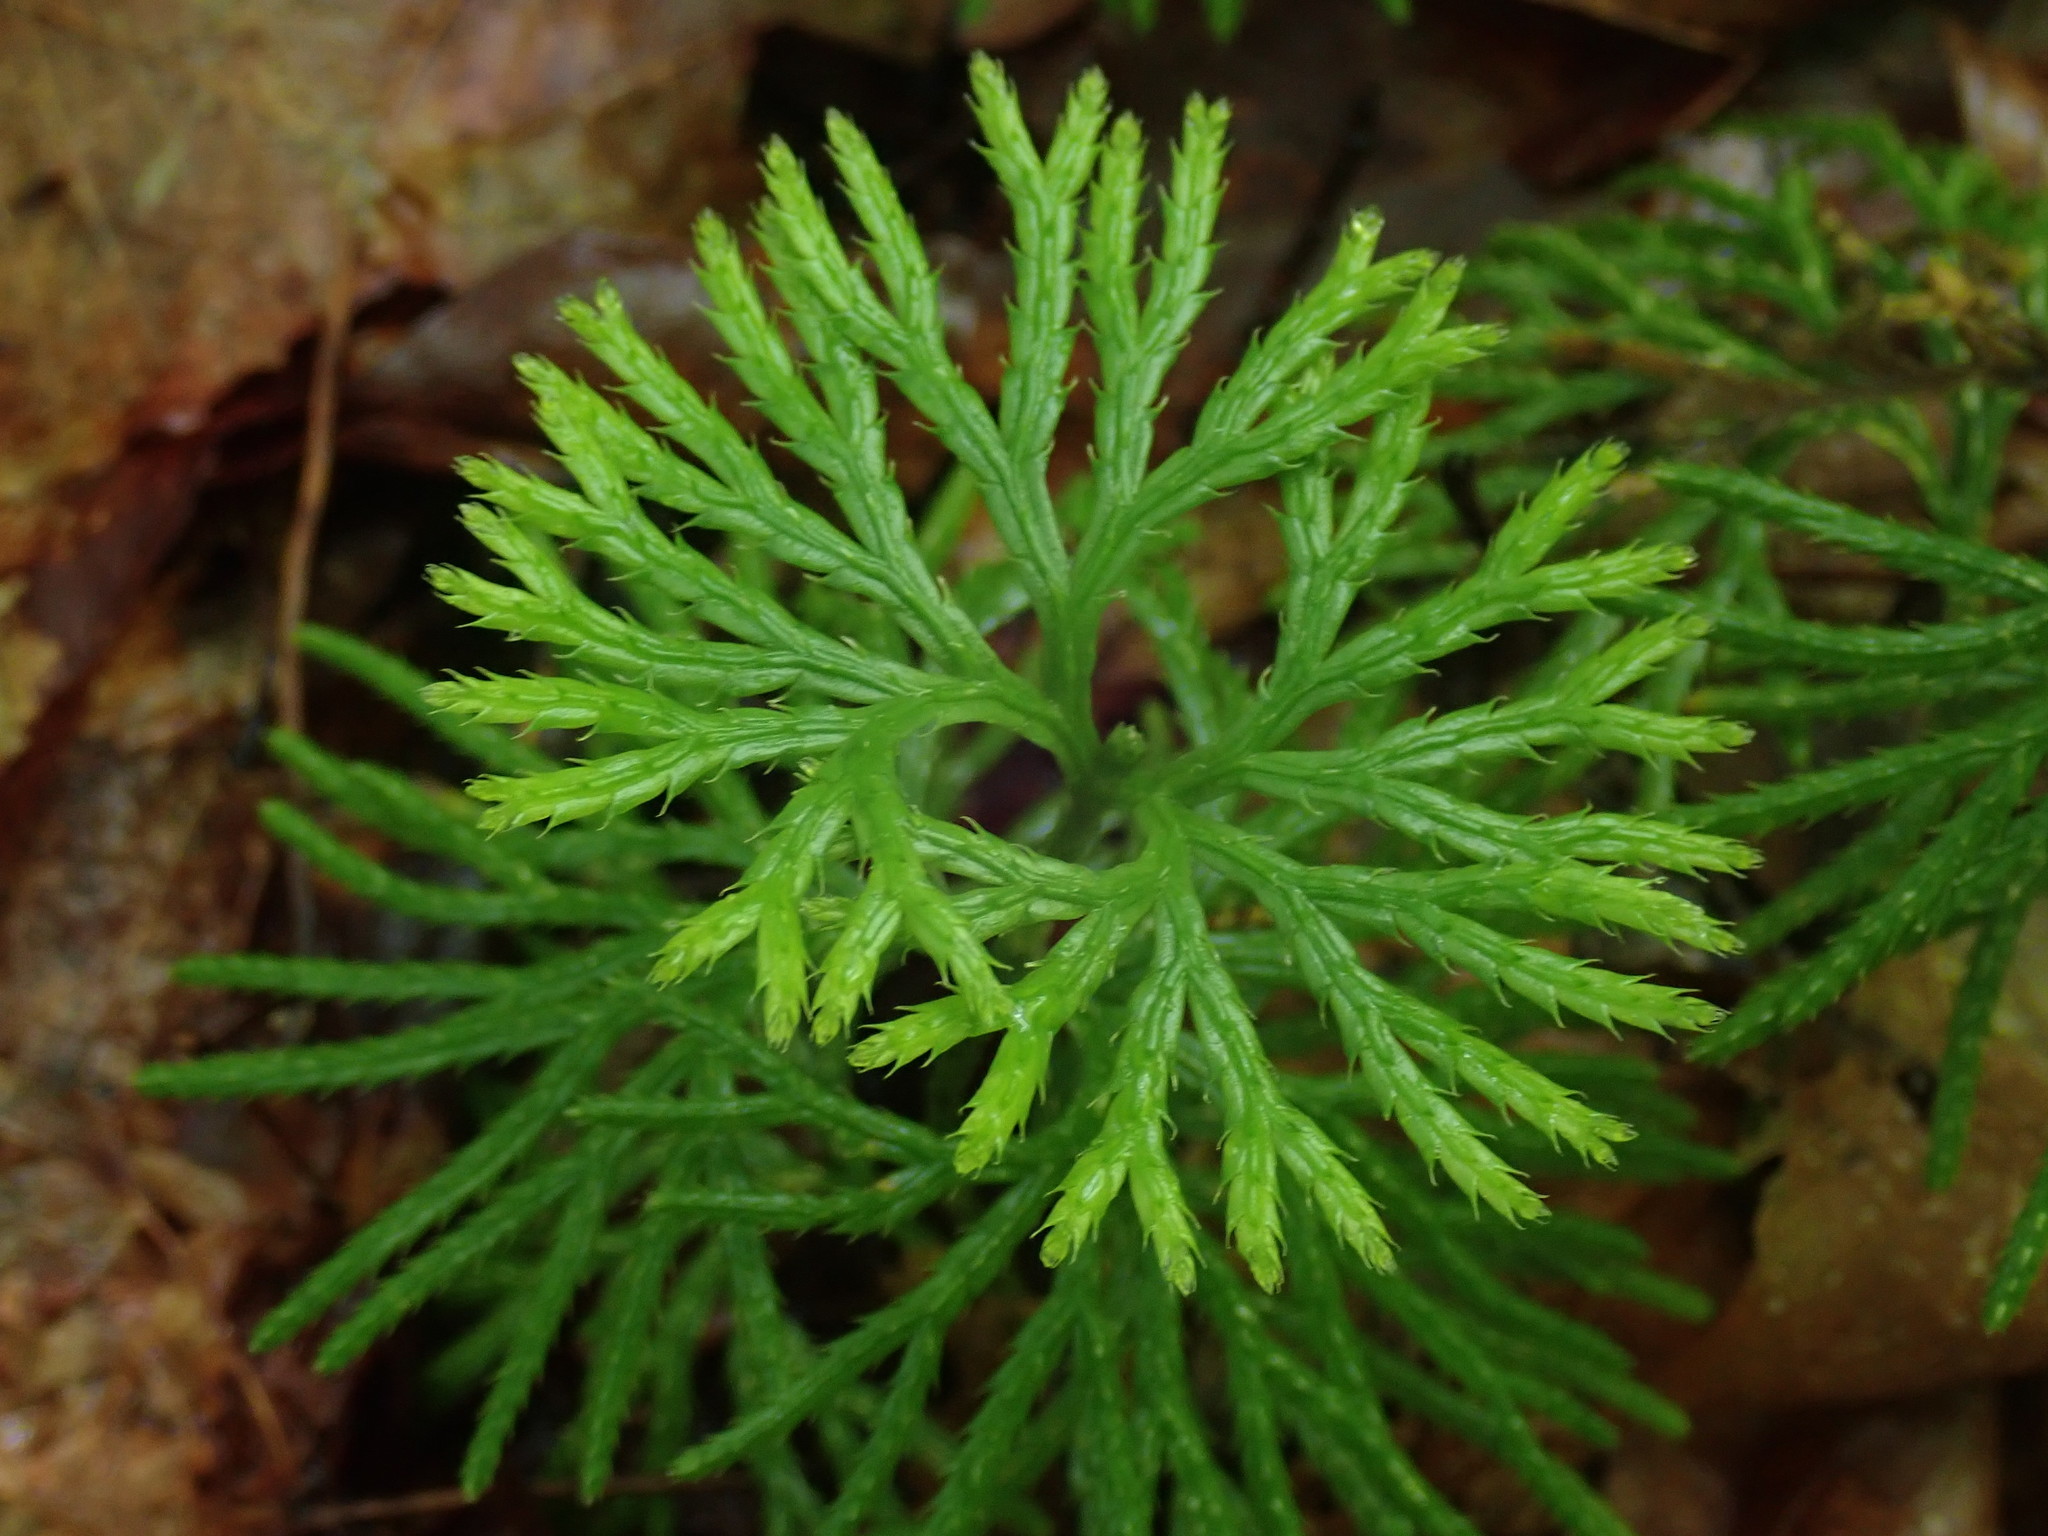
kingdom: Plantae
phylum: Tracheophyta
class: Lycopodiopsida
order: Lycopodiales
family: Lycopodiaceae
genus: Diphasiastrum
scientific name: Diphasiastrum digitatum
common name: Southern running-pine
